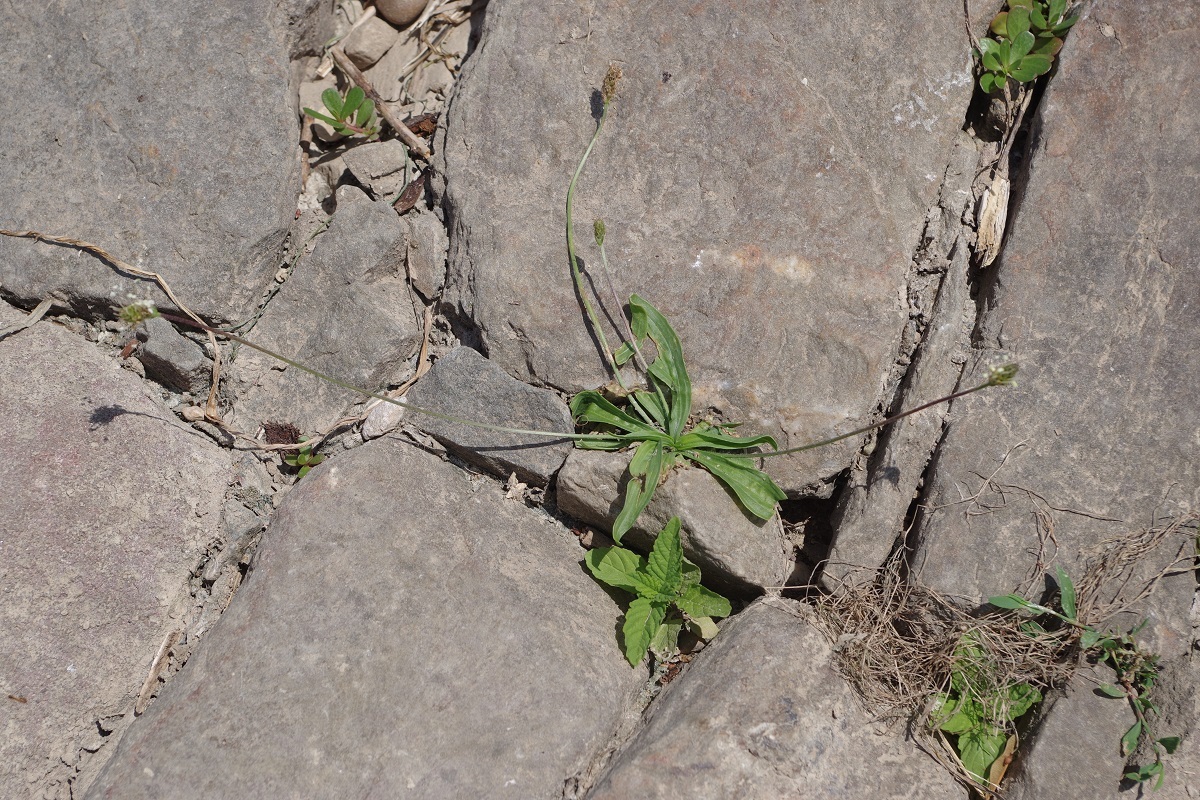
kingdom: Plantae
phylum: Tracheophyta
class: Magnoliopsida
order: Lamiales
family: Plantaginaceae
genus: Plantago
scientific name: Plantago lanceolata
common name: Ribwort plantain
